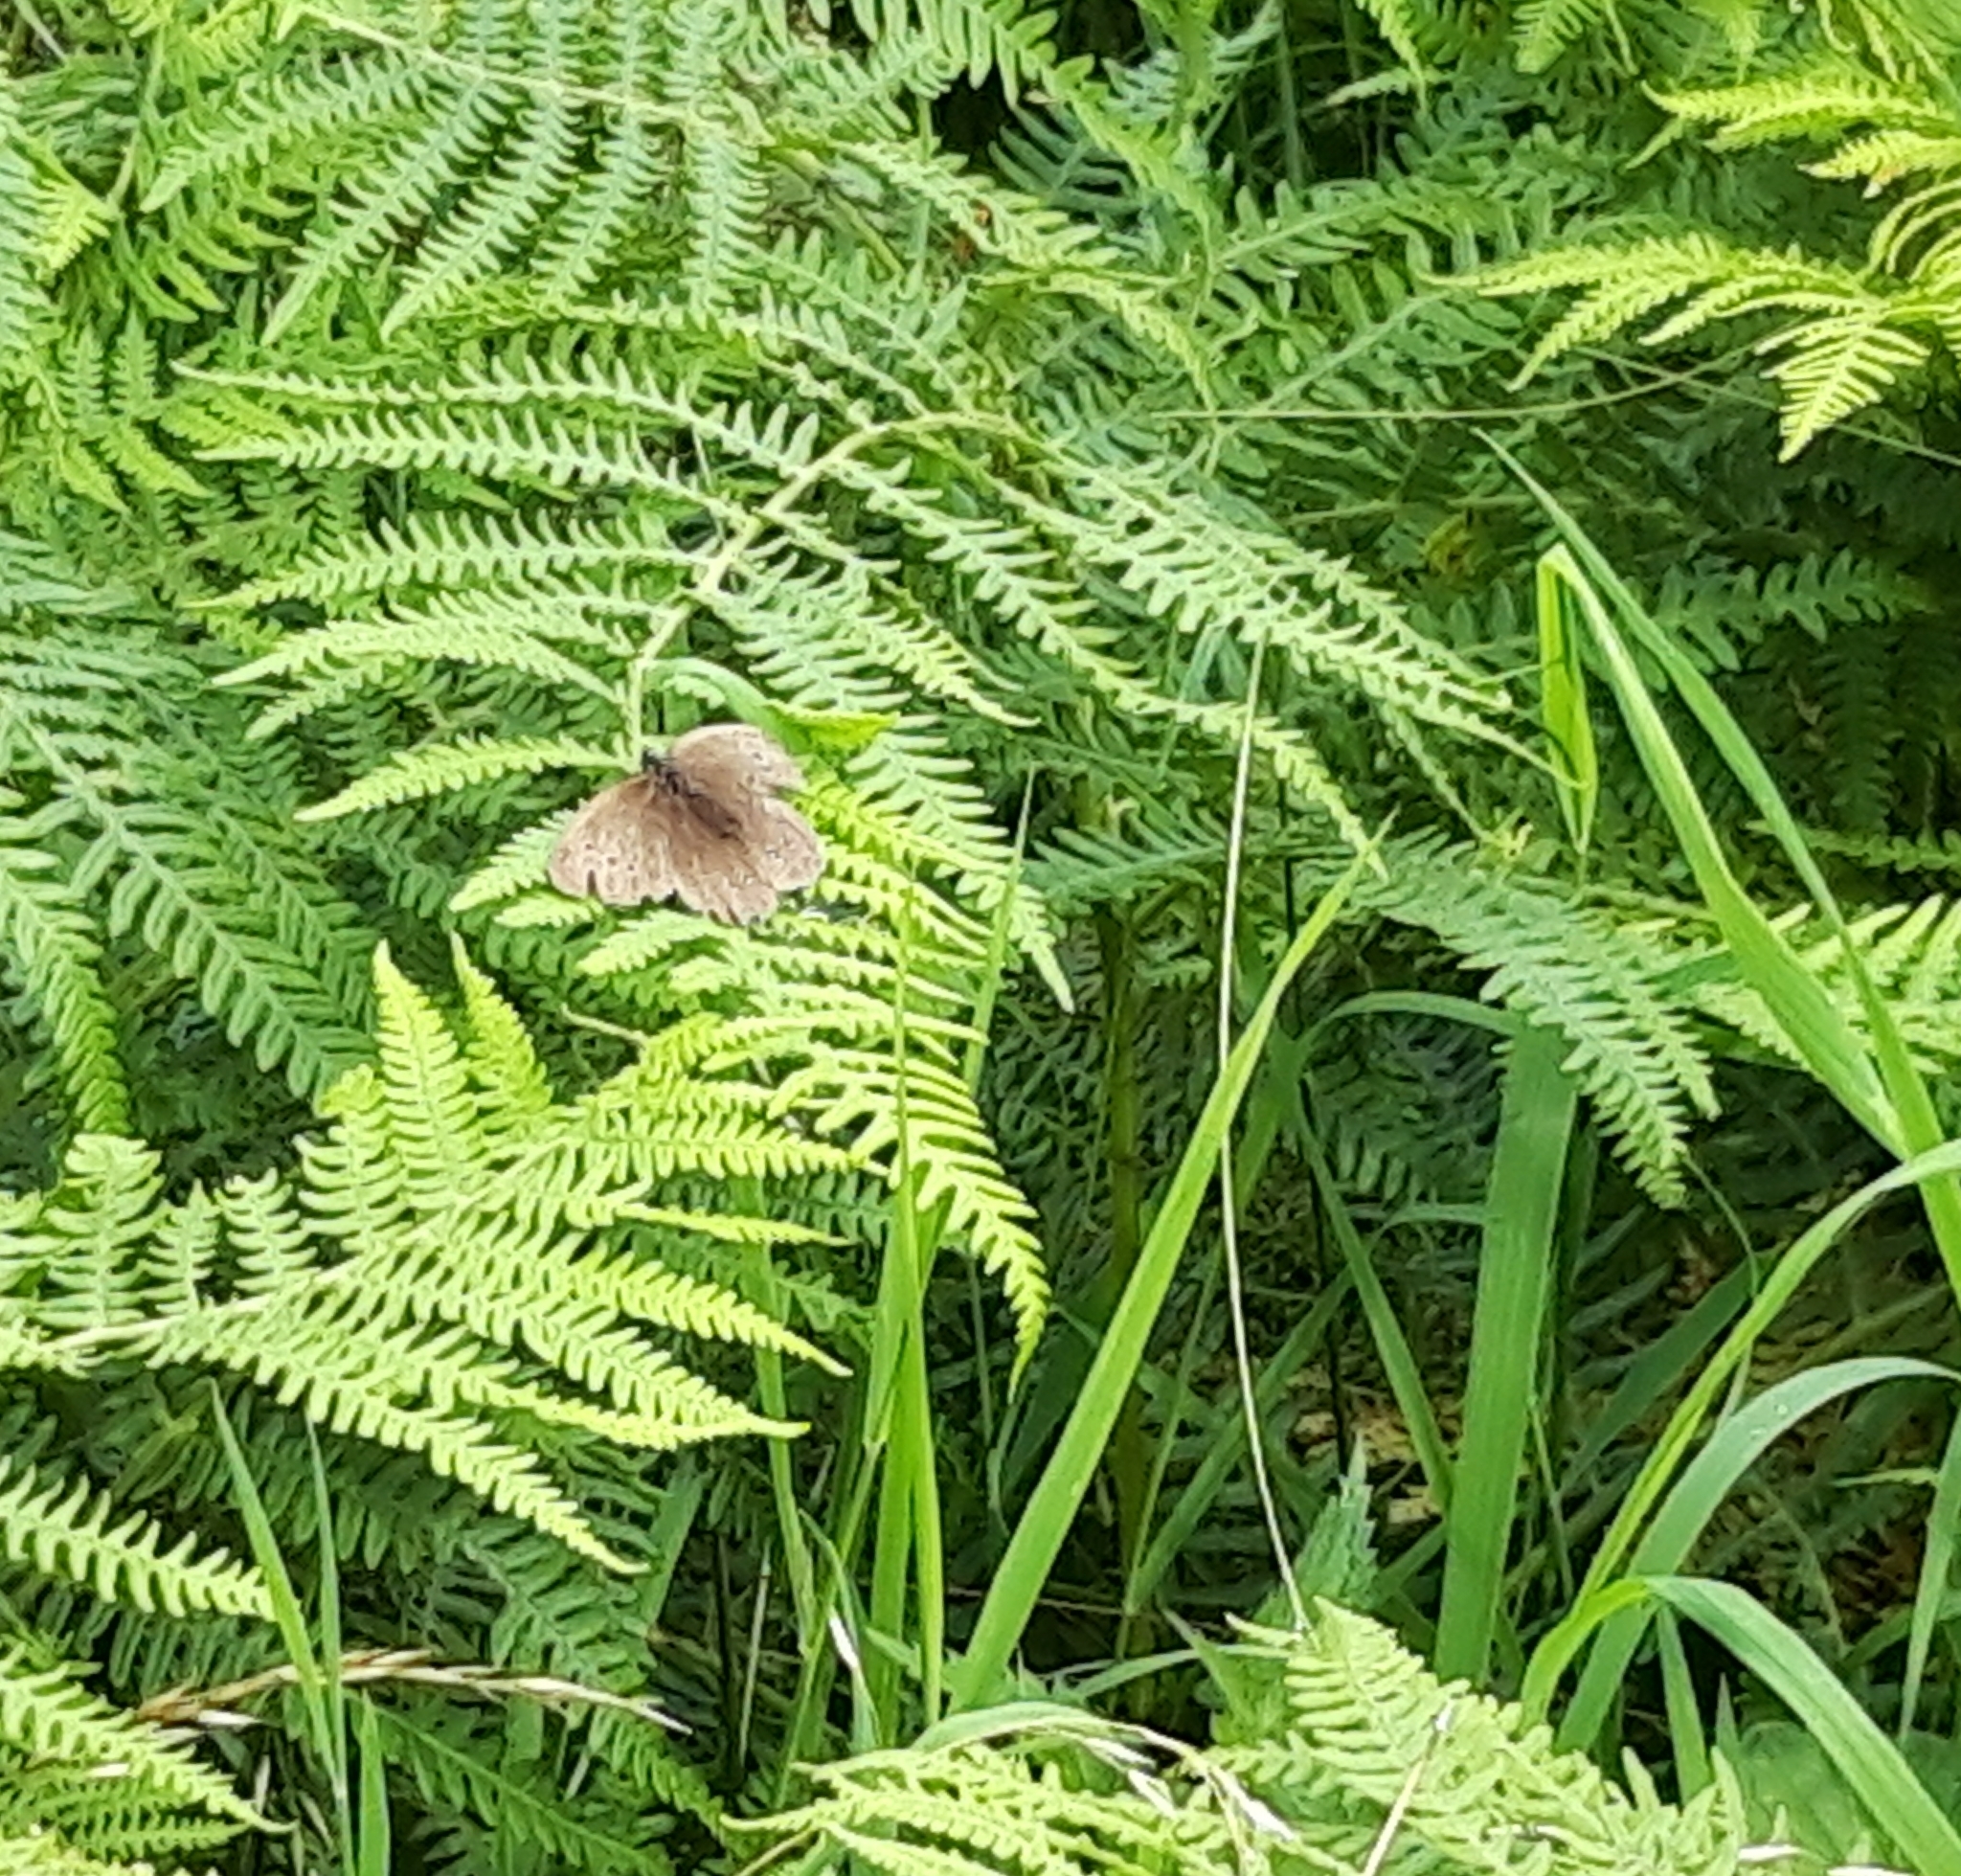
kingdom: Animalia
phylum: Arthropoda
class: Insecta
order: Lepidoptera
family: Nymphalidae
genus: Aphantopus
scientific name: Aphantopus hyperantus
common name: Ringlet
